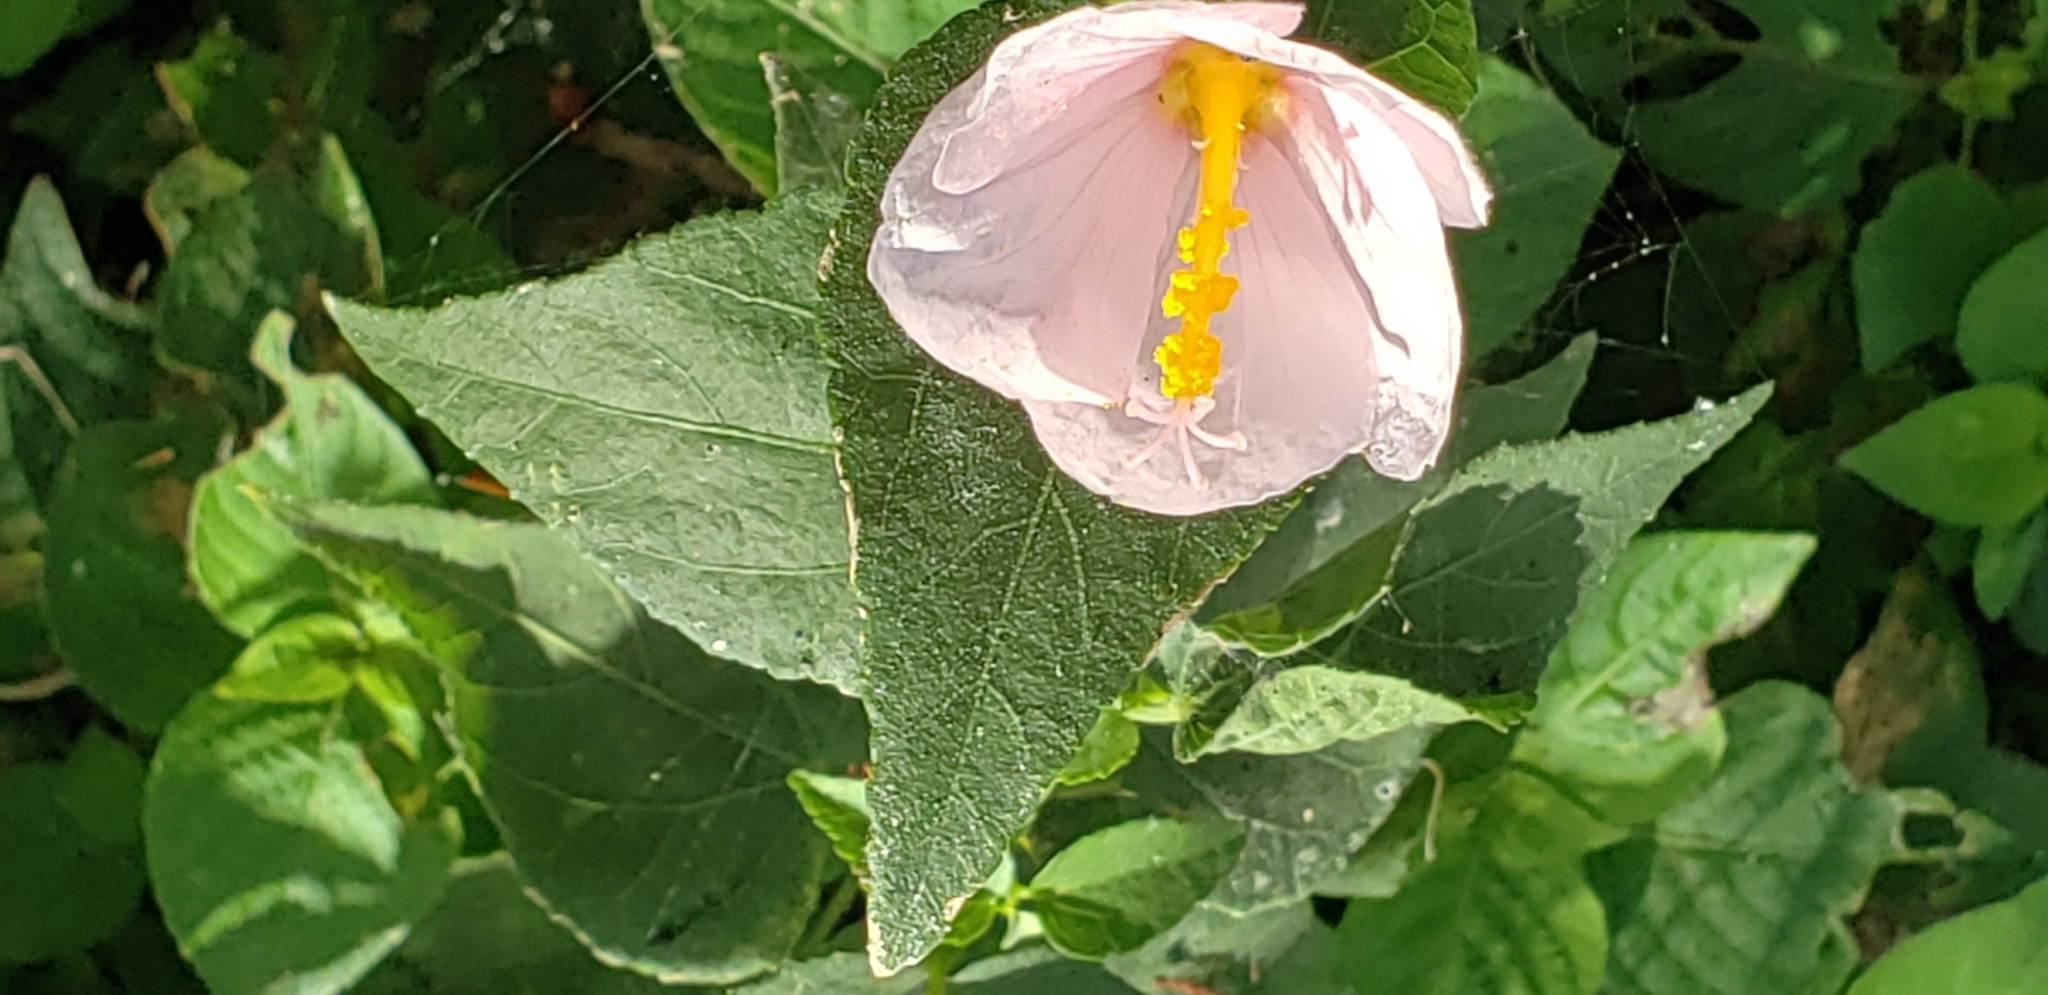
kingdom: Plantae
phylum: Tracheophyta
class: Magnoliopsida
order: Malvales
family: Malvaceae
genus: Kosteletzkya
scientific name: Kosteletzkya pentacarpos
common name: Virginia saltmarsh mallow
